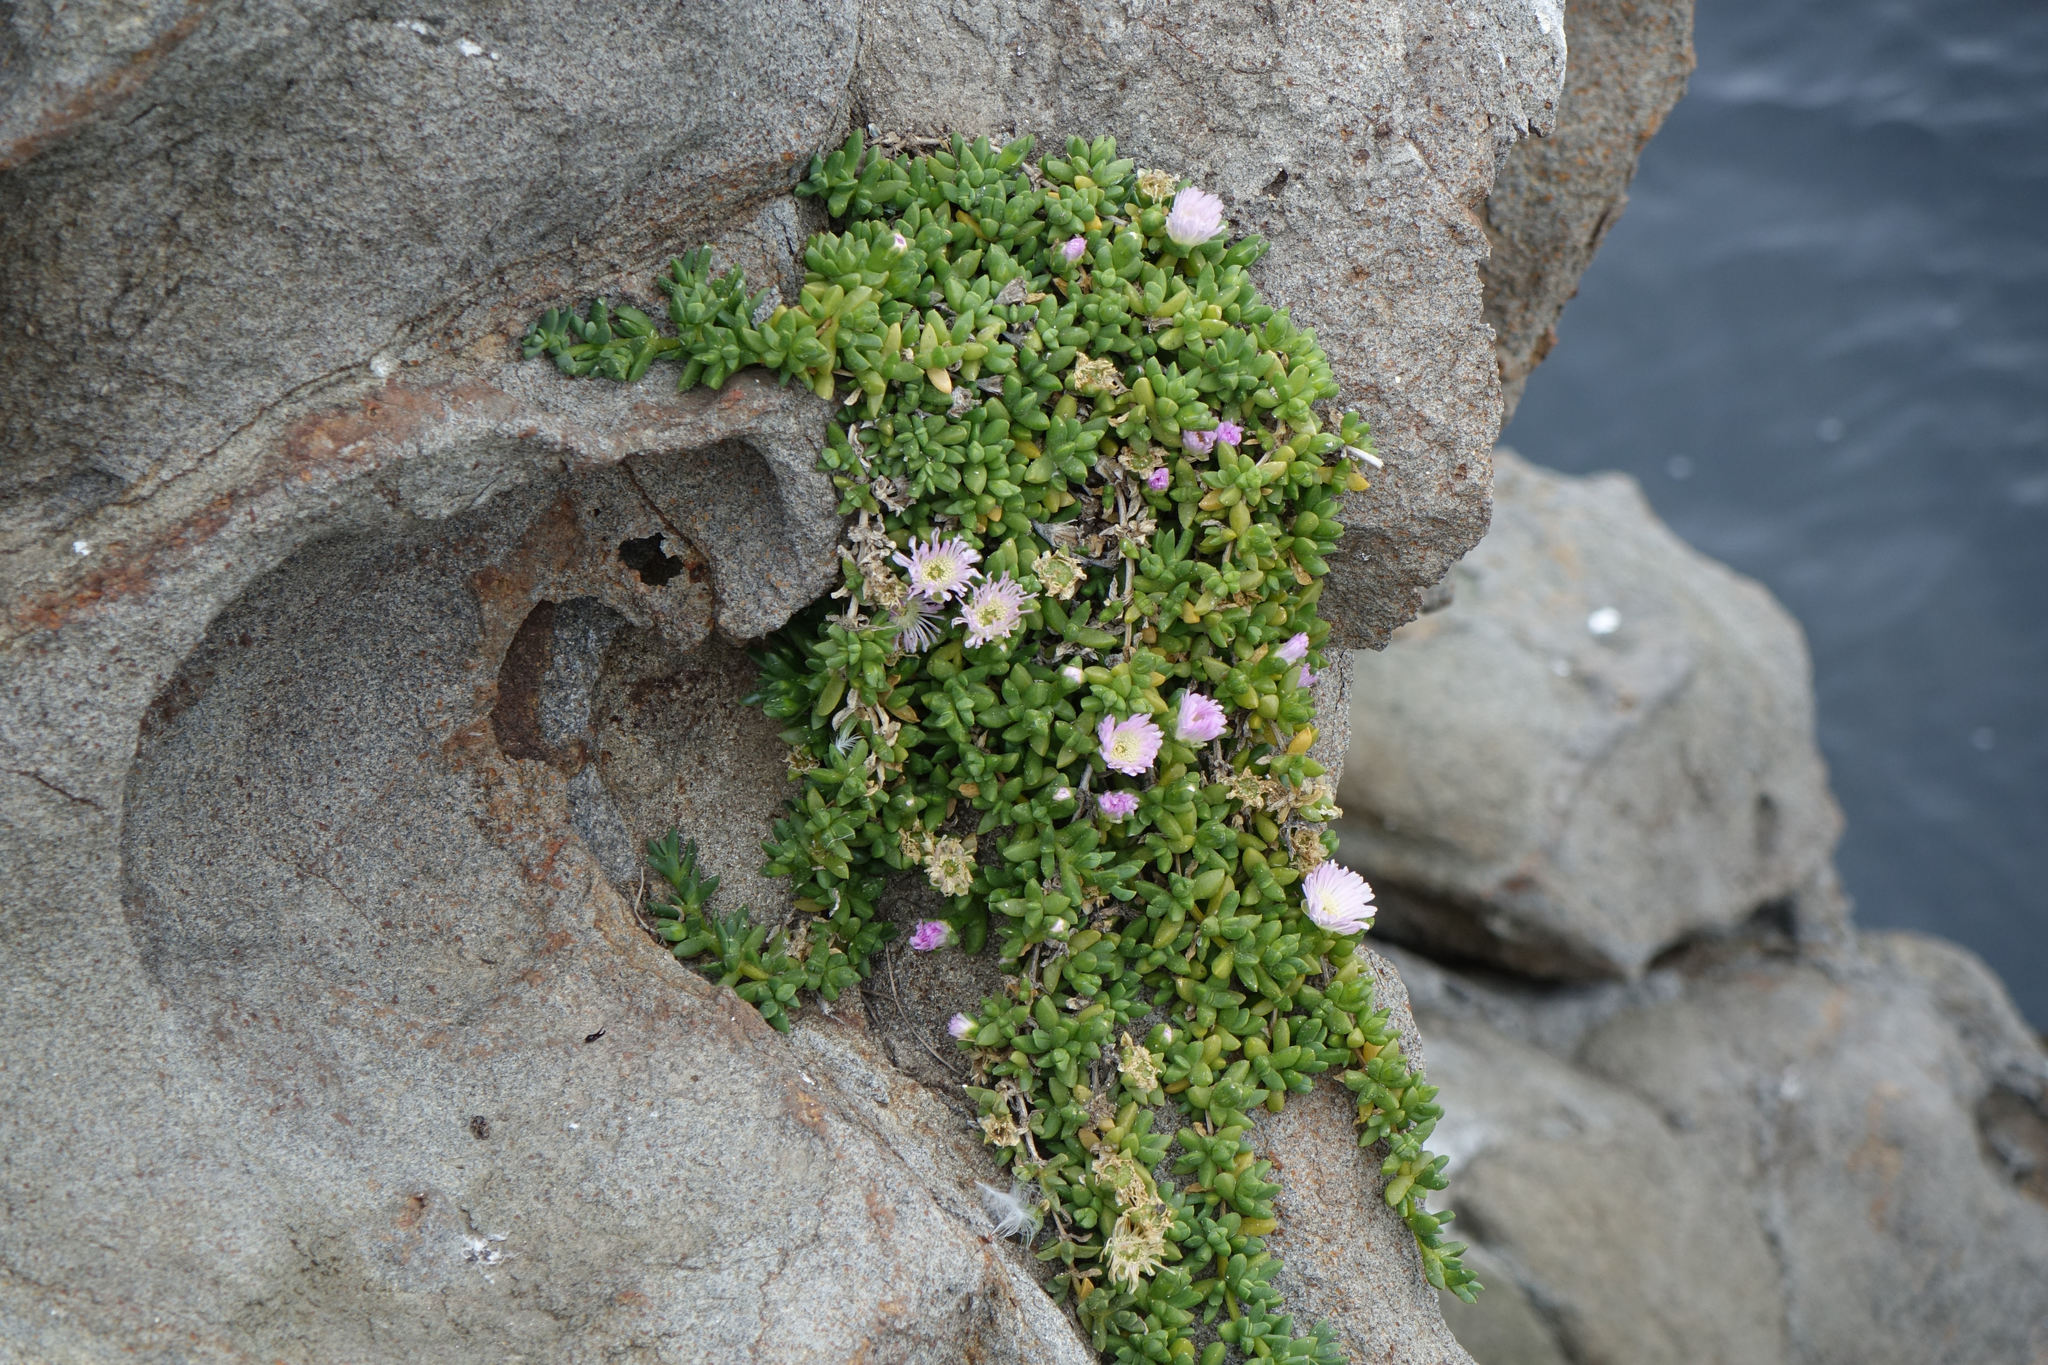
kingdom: Plantae
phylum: Tracheophyta
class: Magnoliopsida
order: Caryophyllales
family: Aizoaceae
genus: Disphyma
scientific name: Disphyma australe
